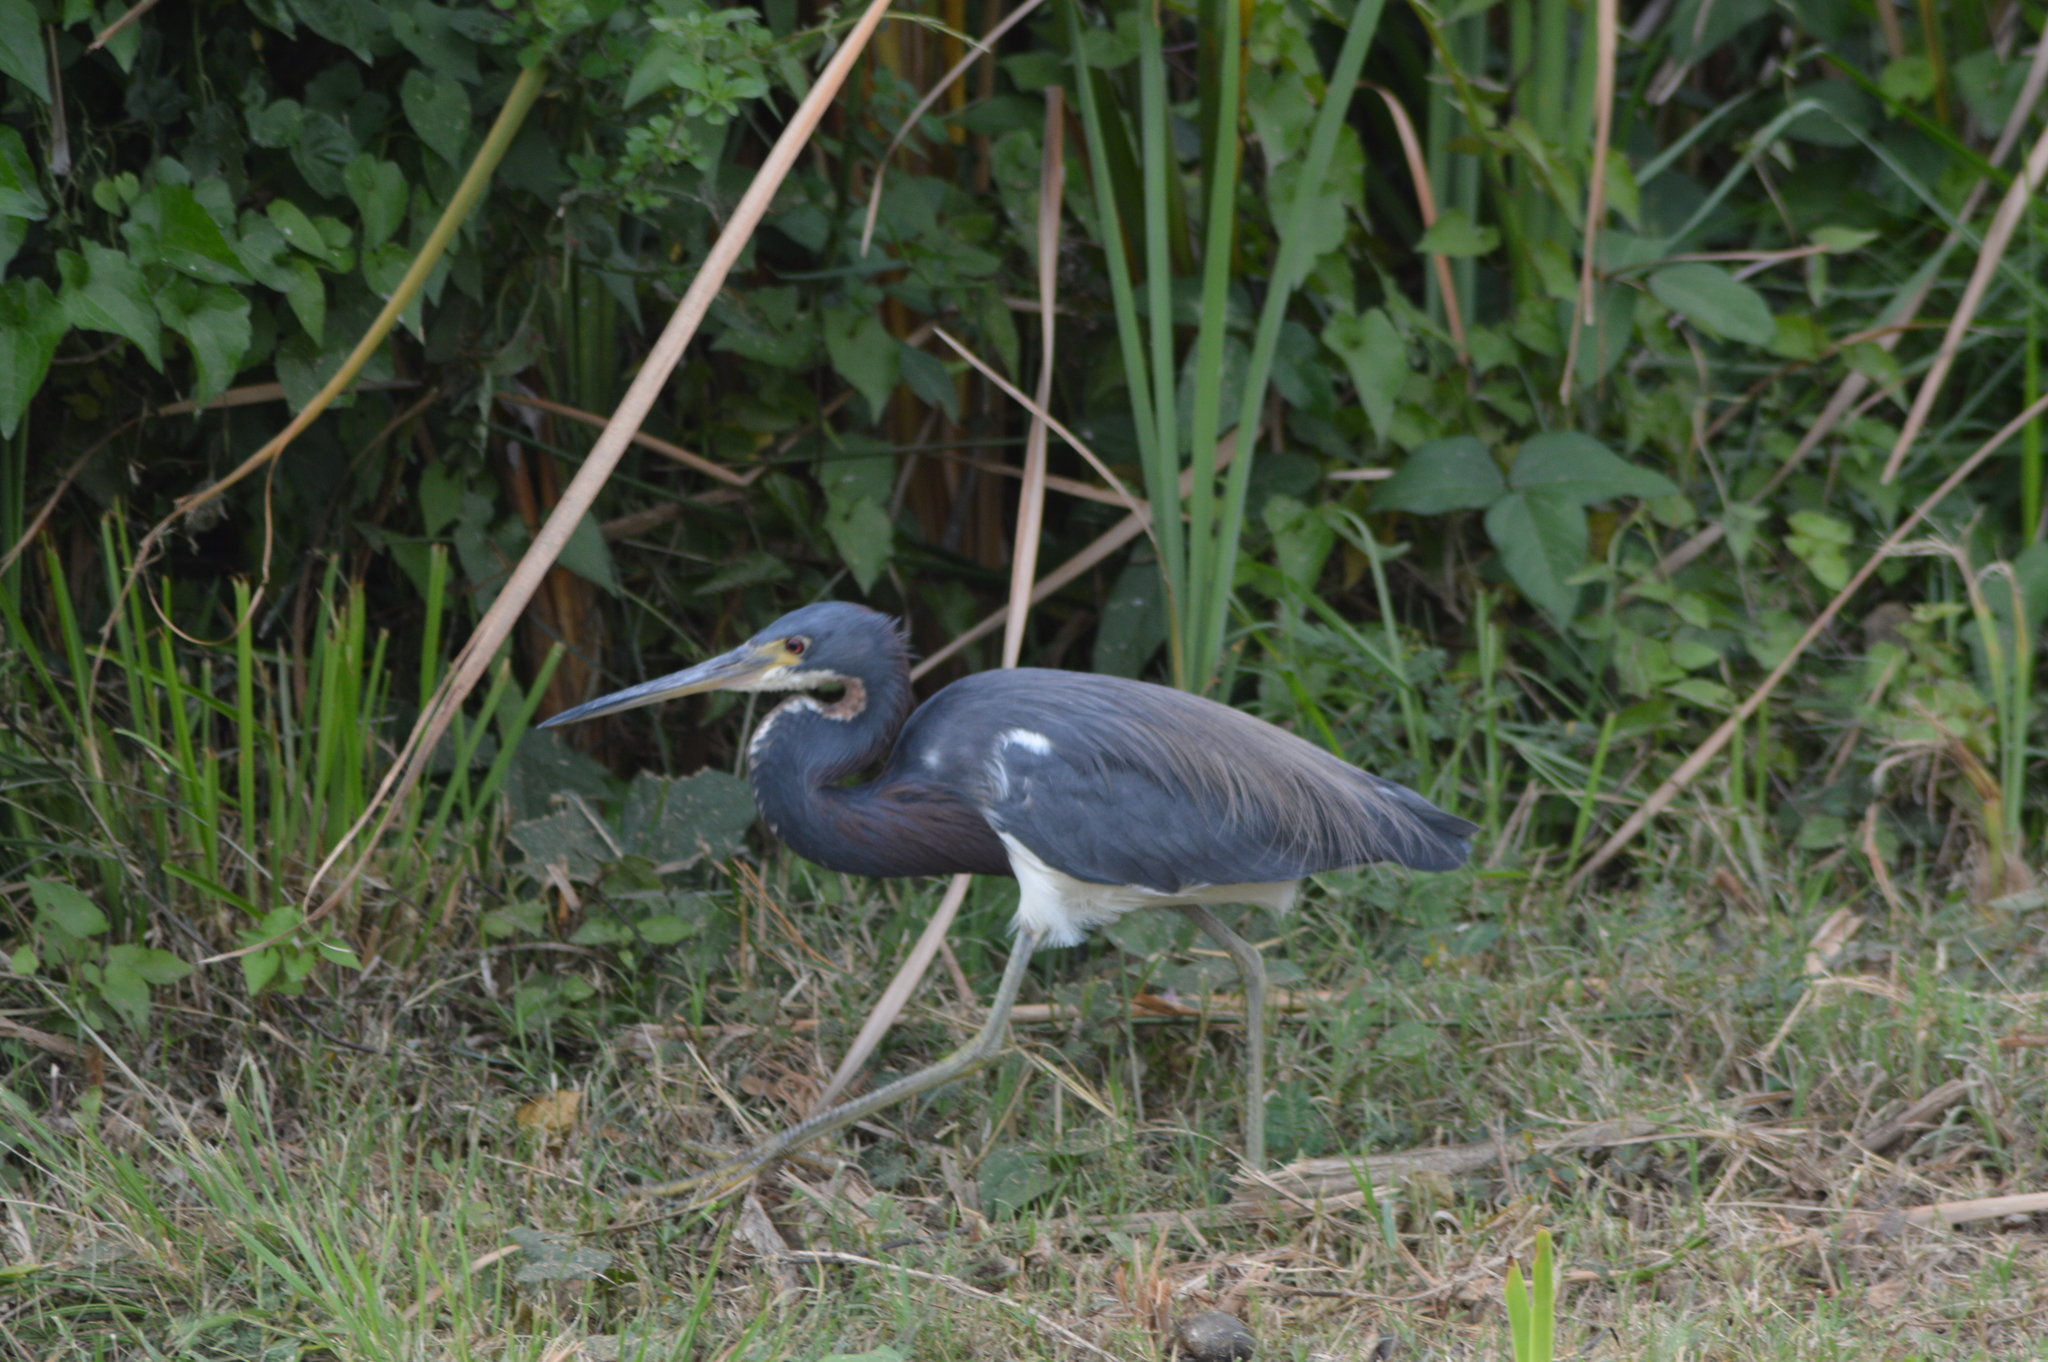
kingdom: Animalia
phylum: Chordata
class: Aves
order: Pelecaniformes
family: Ardeidae
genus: Egretta
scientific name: Egretta tricolor
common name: Tricolored heron
